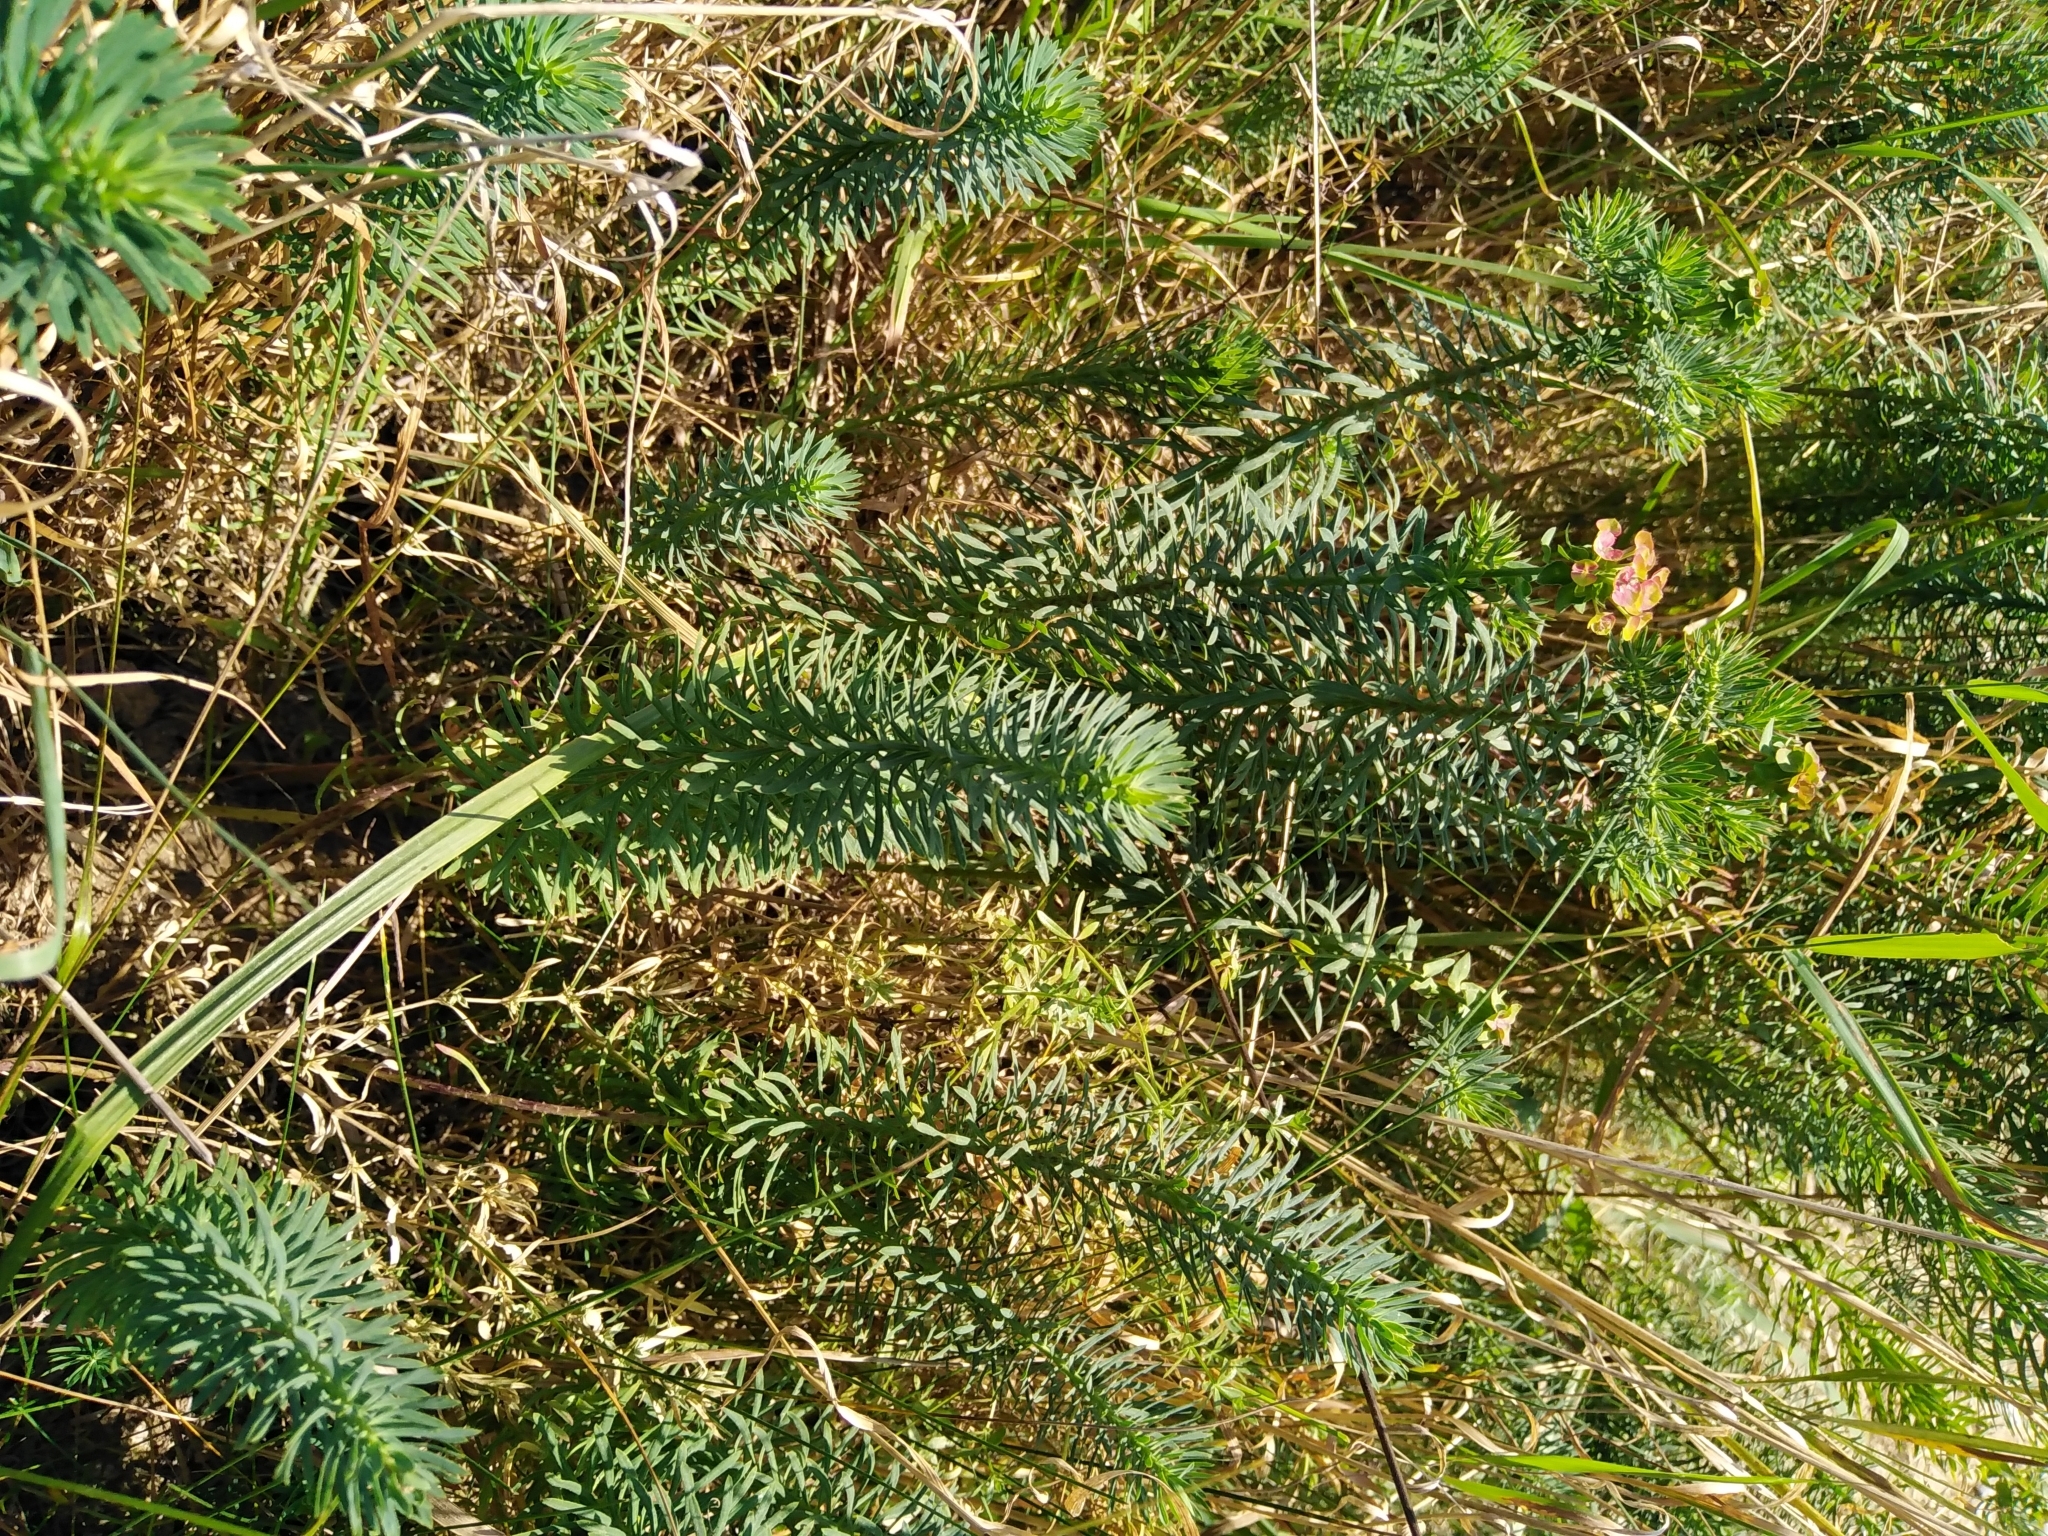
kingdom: Plantae
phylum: Tracheophyta
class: Magnoliopsida
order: Malpighiales
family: Euphorbiaceae
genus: Euphorbia
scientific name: Euphorbia cyparissias
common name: Cypress spurge
